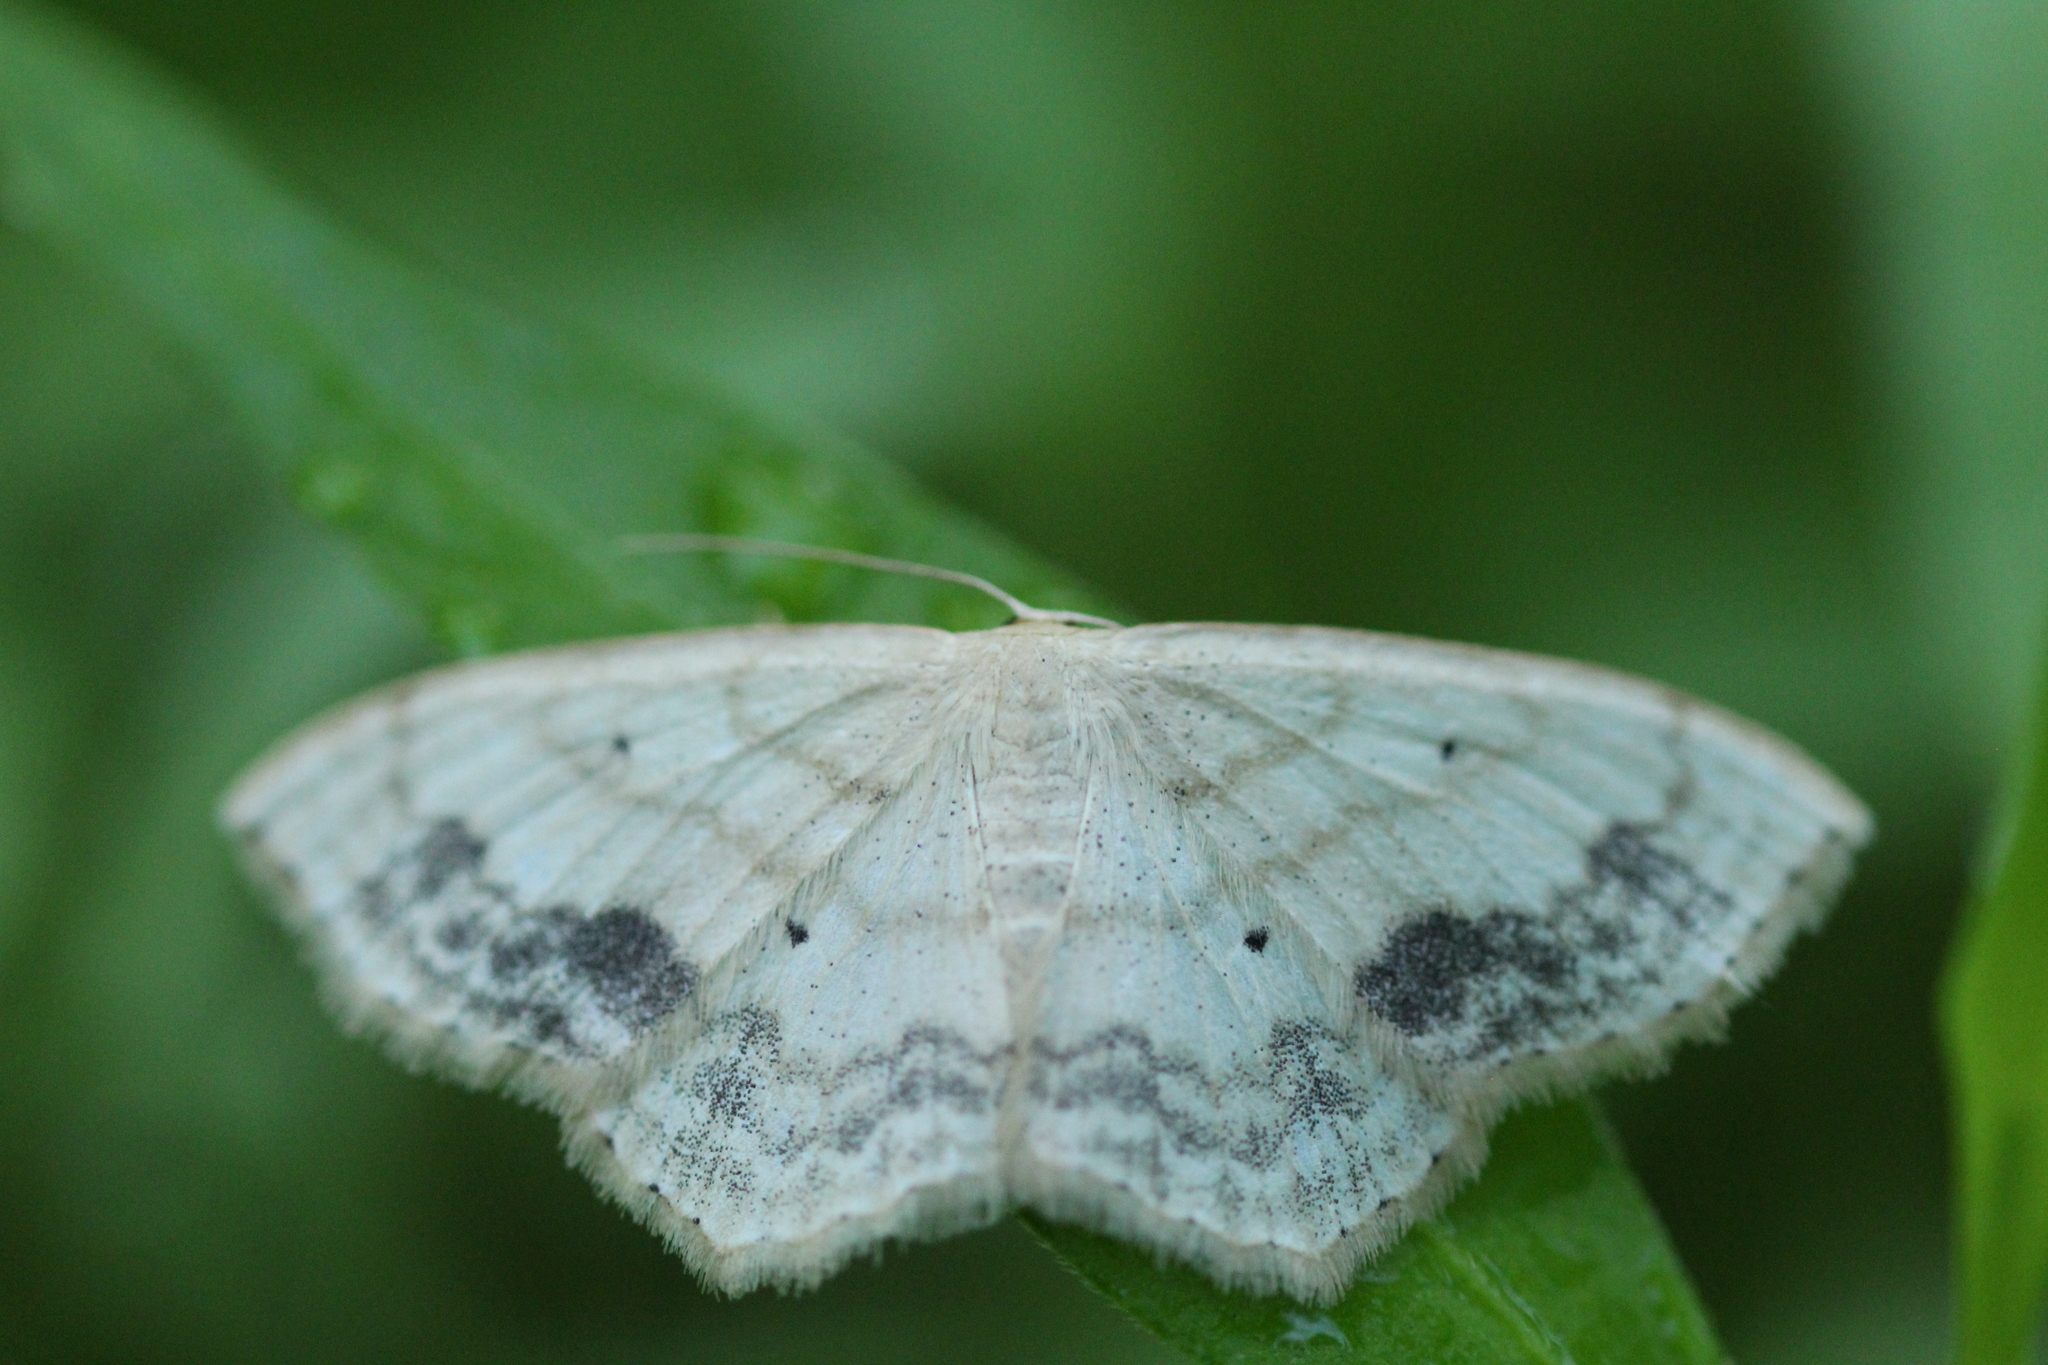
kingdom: Animalia
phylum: Arthropoda
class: Insecta
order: Lepidoptera
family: Geometridae
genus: Scopula
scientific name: Scopula limboundata
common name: Large lace border
